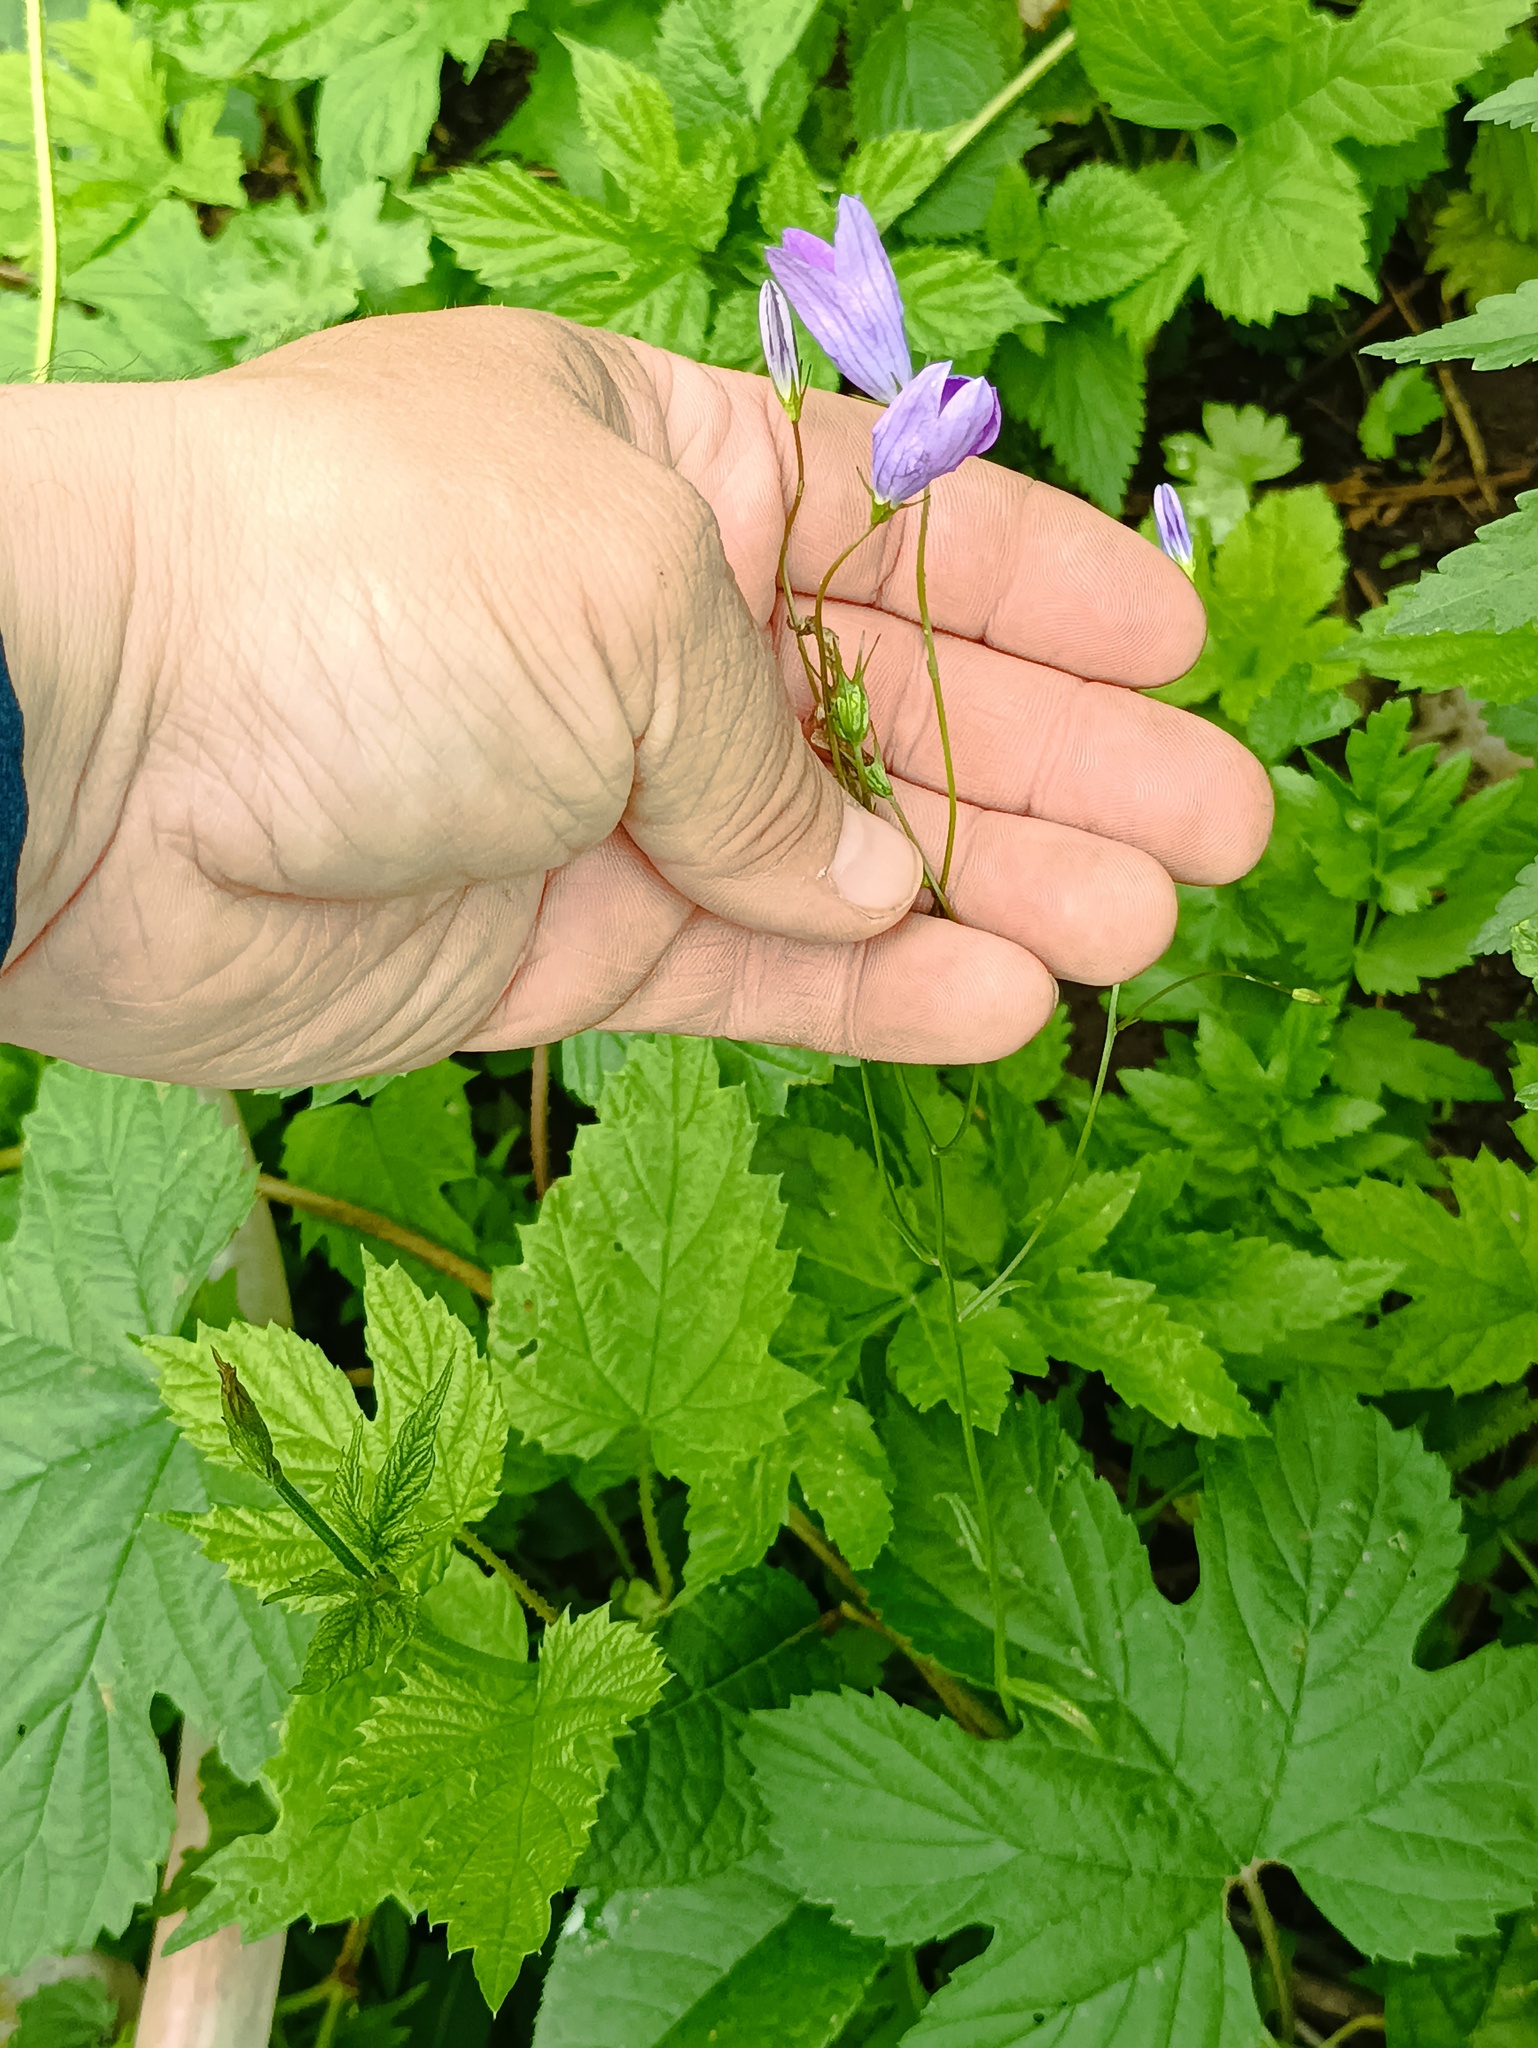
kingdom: Plantae
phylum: Tracheophyta
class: Magnoliopsida
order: Asterales
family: Campanulaceae
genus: Campanula
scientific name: Campanula patula
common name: Spreading bellflower
